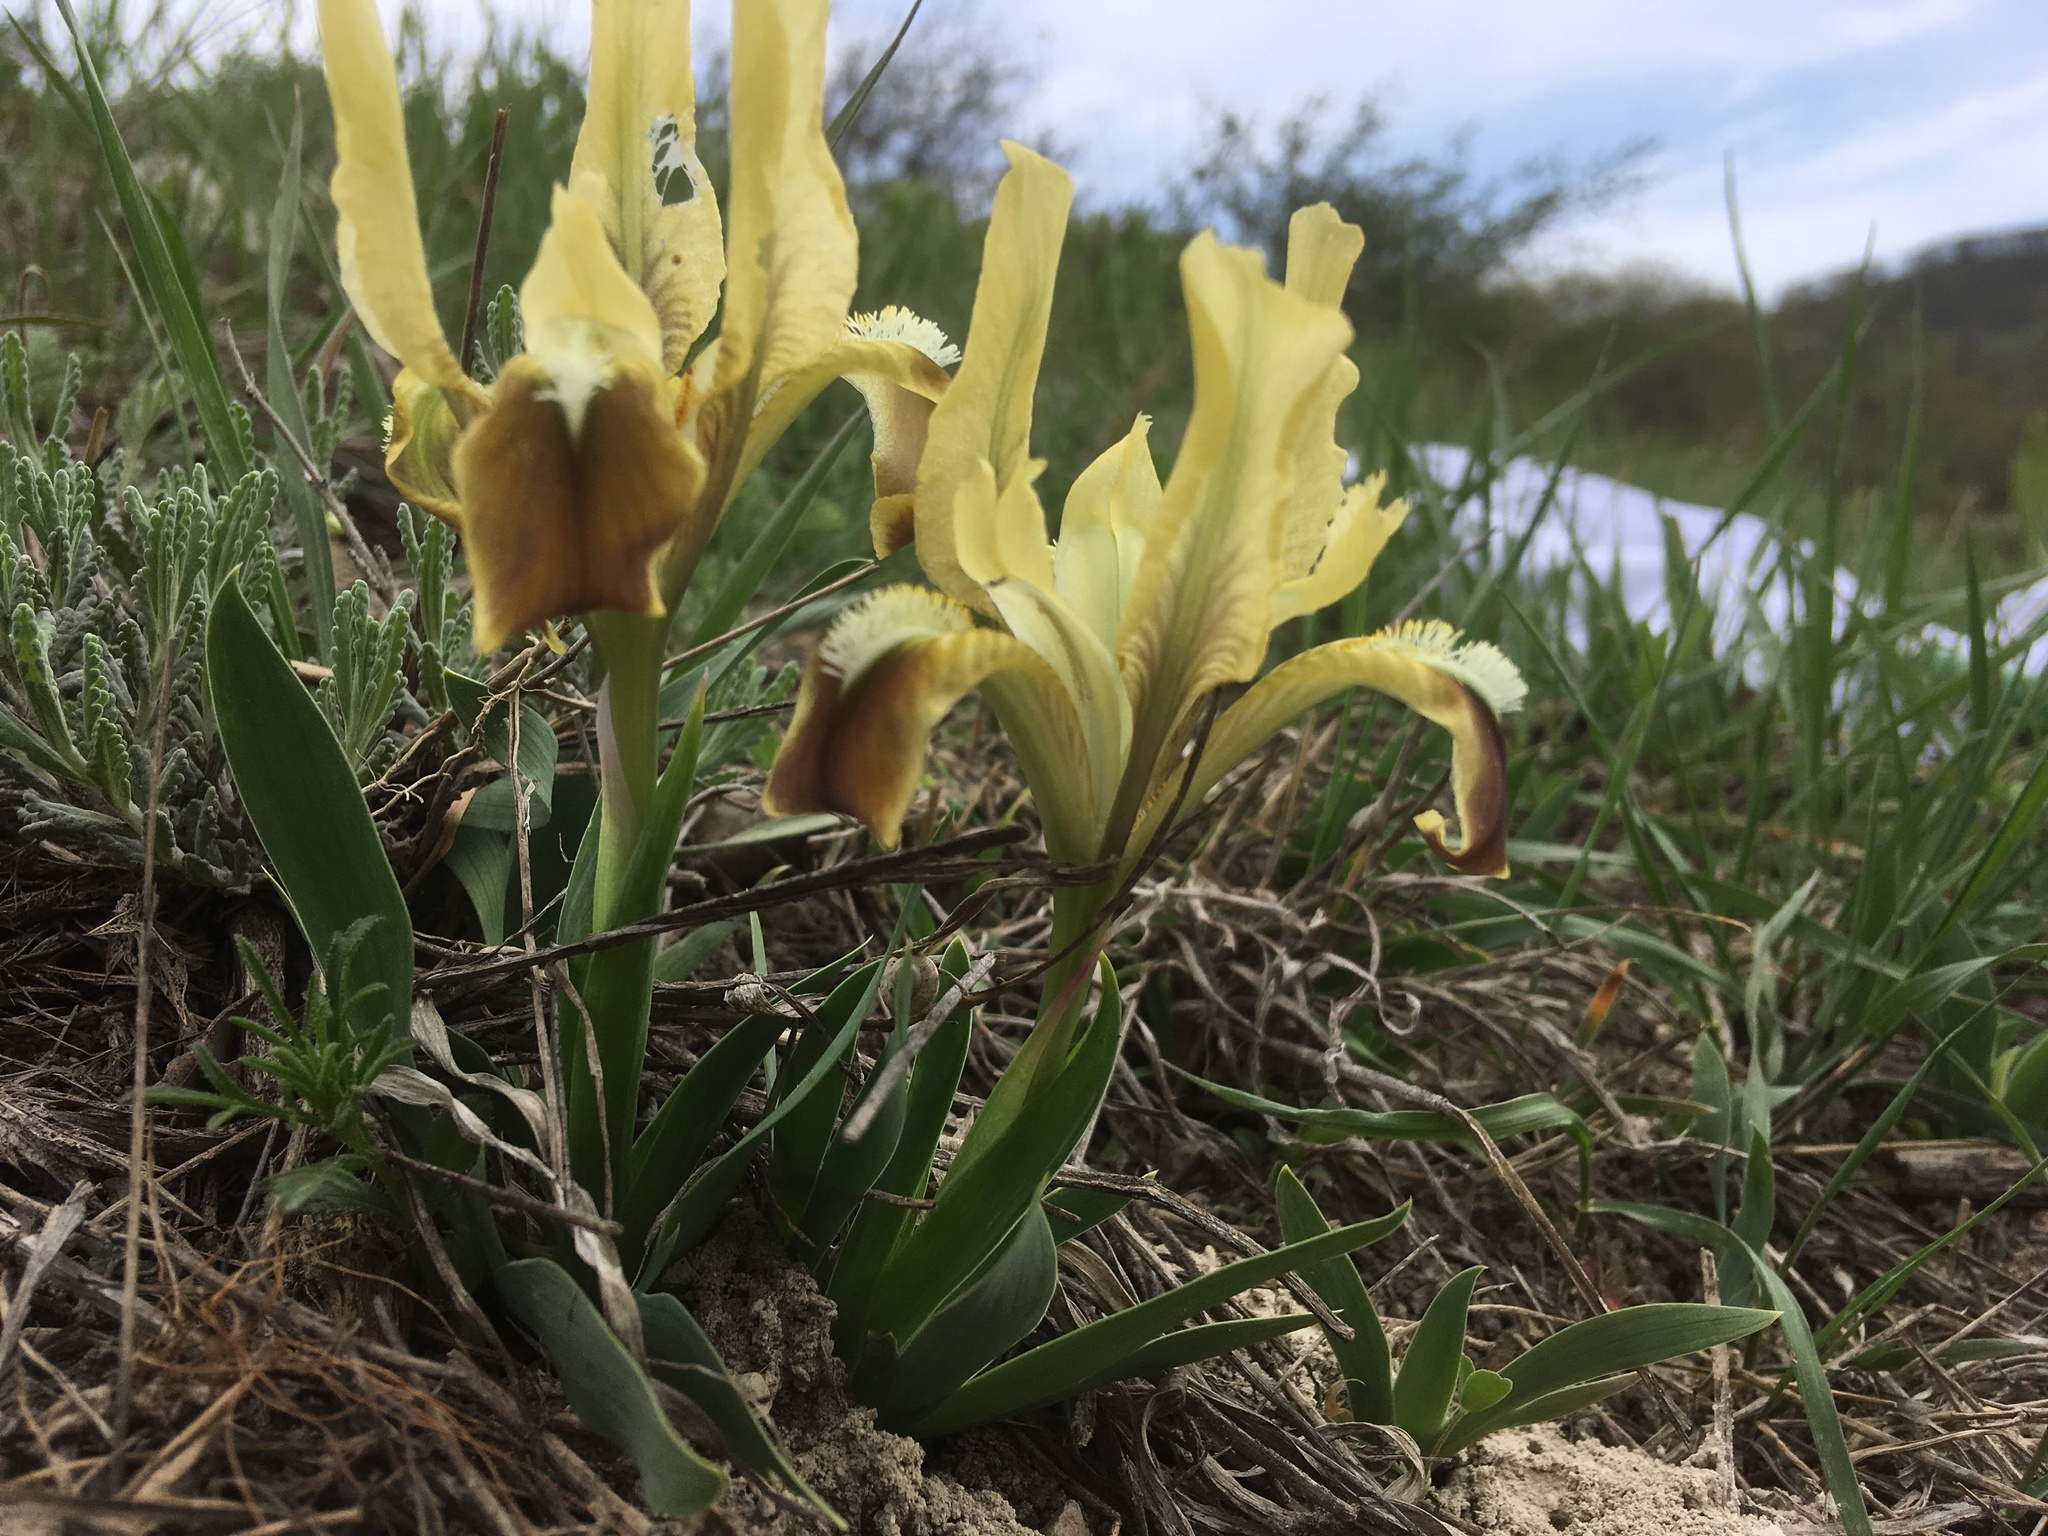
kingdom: Plantae
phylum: Tracheophyta
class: Liliopsida
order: Asparagales
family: Iridaceae
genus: Iris
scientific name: Iris pumila
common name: Dwarf iris
